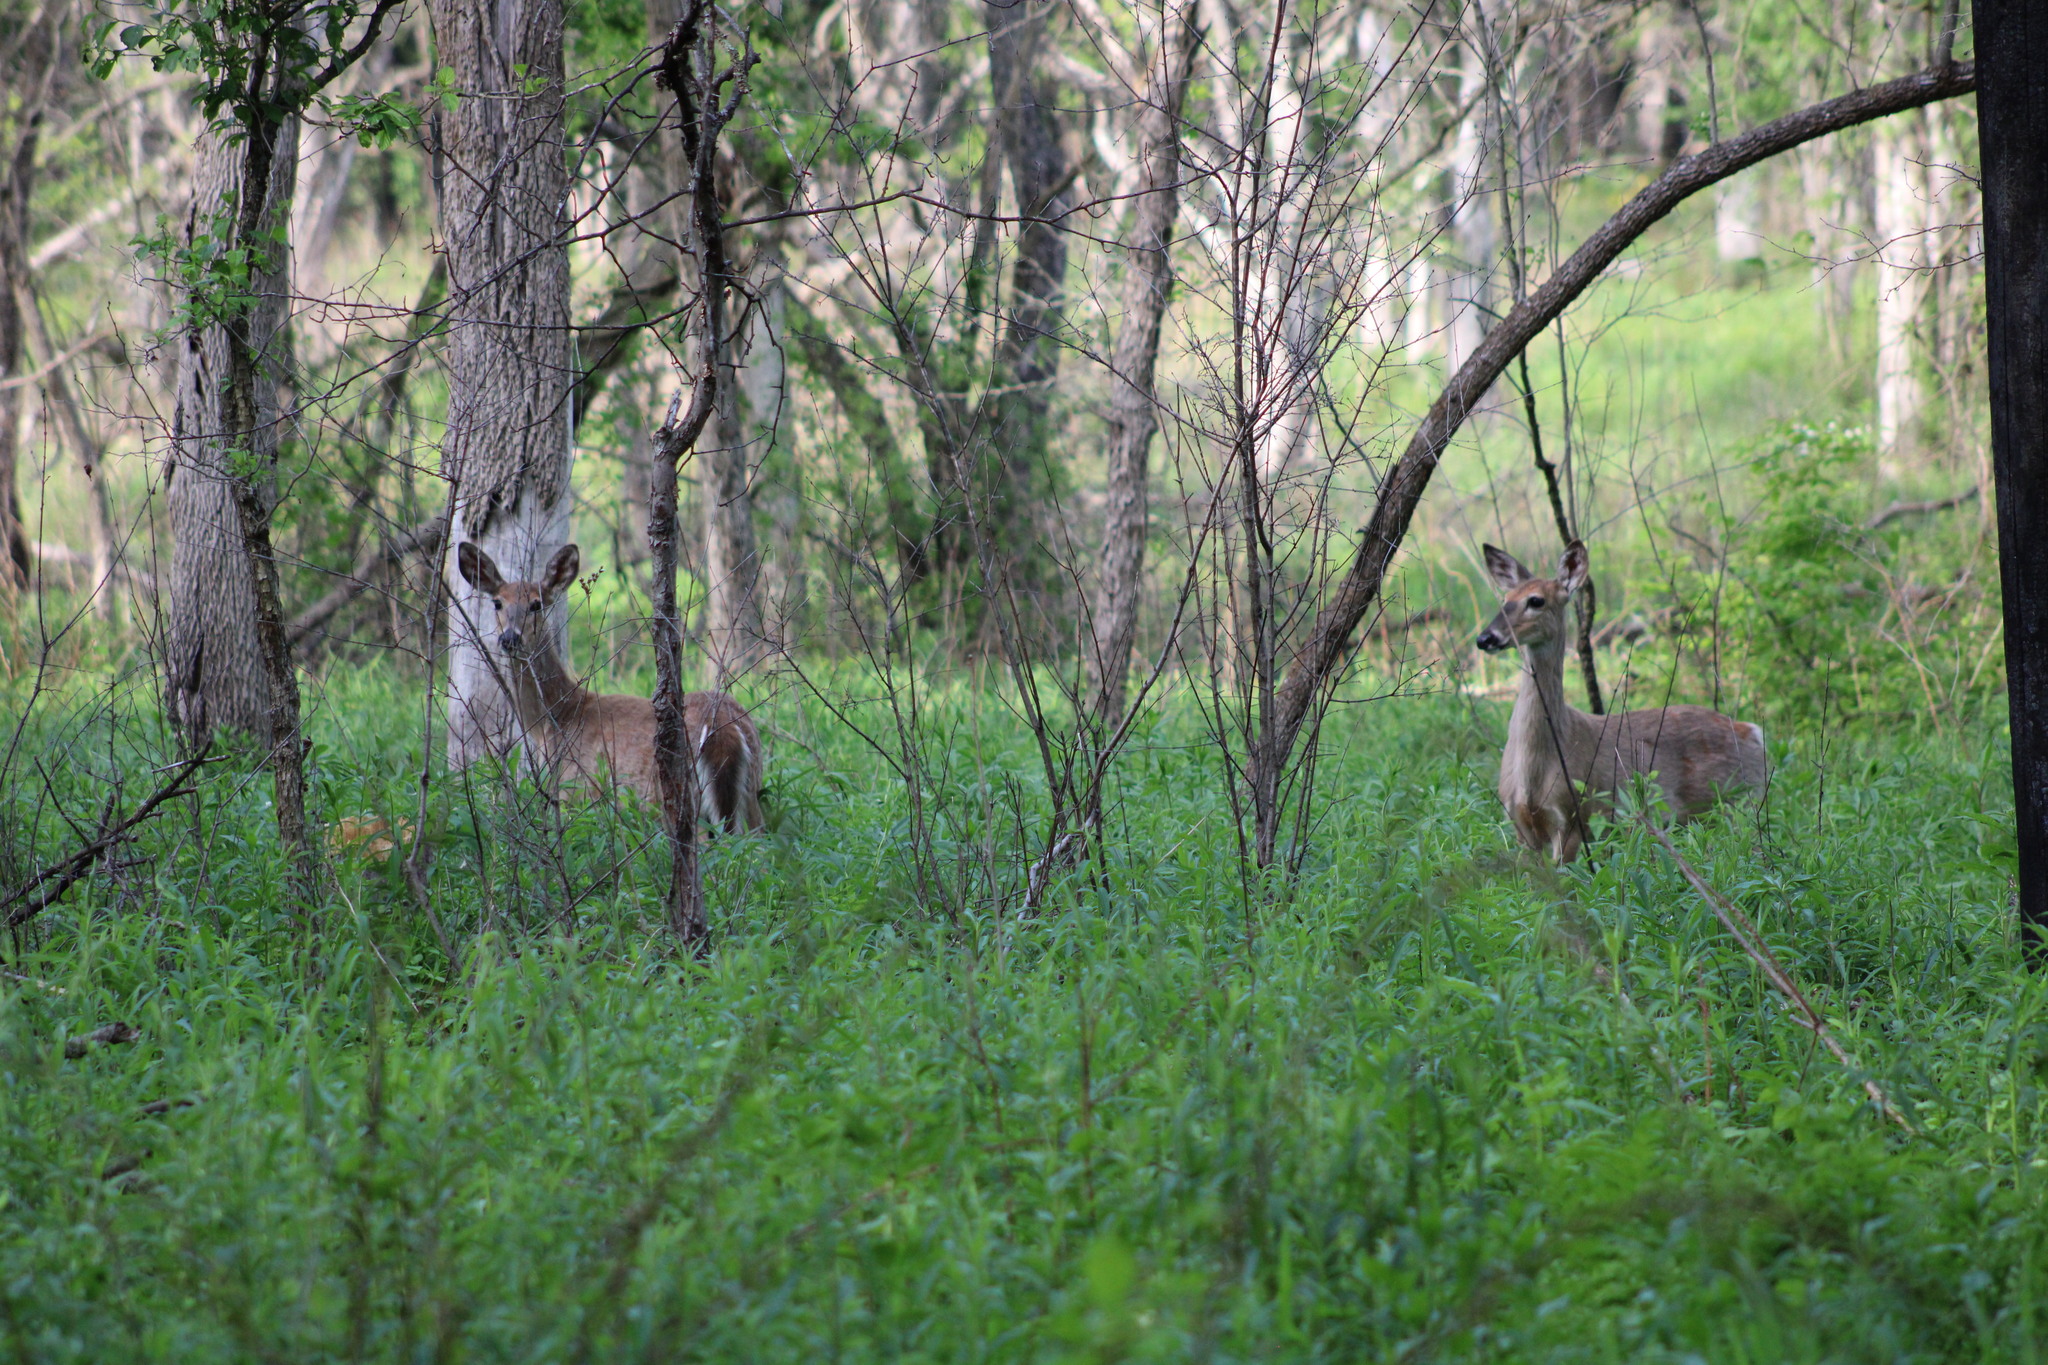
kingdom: Animalia
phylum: Chordata
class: Mammalia
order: Artiodactyla
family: Cervidae
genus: Odocoileus
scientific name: Odocoileus virginianus
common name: White-tailed deer
